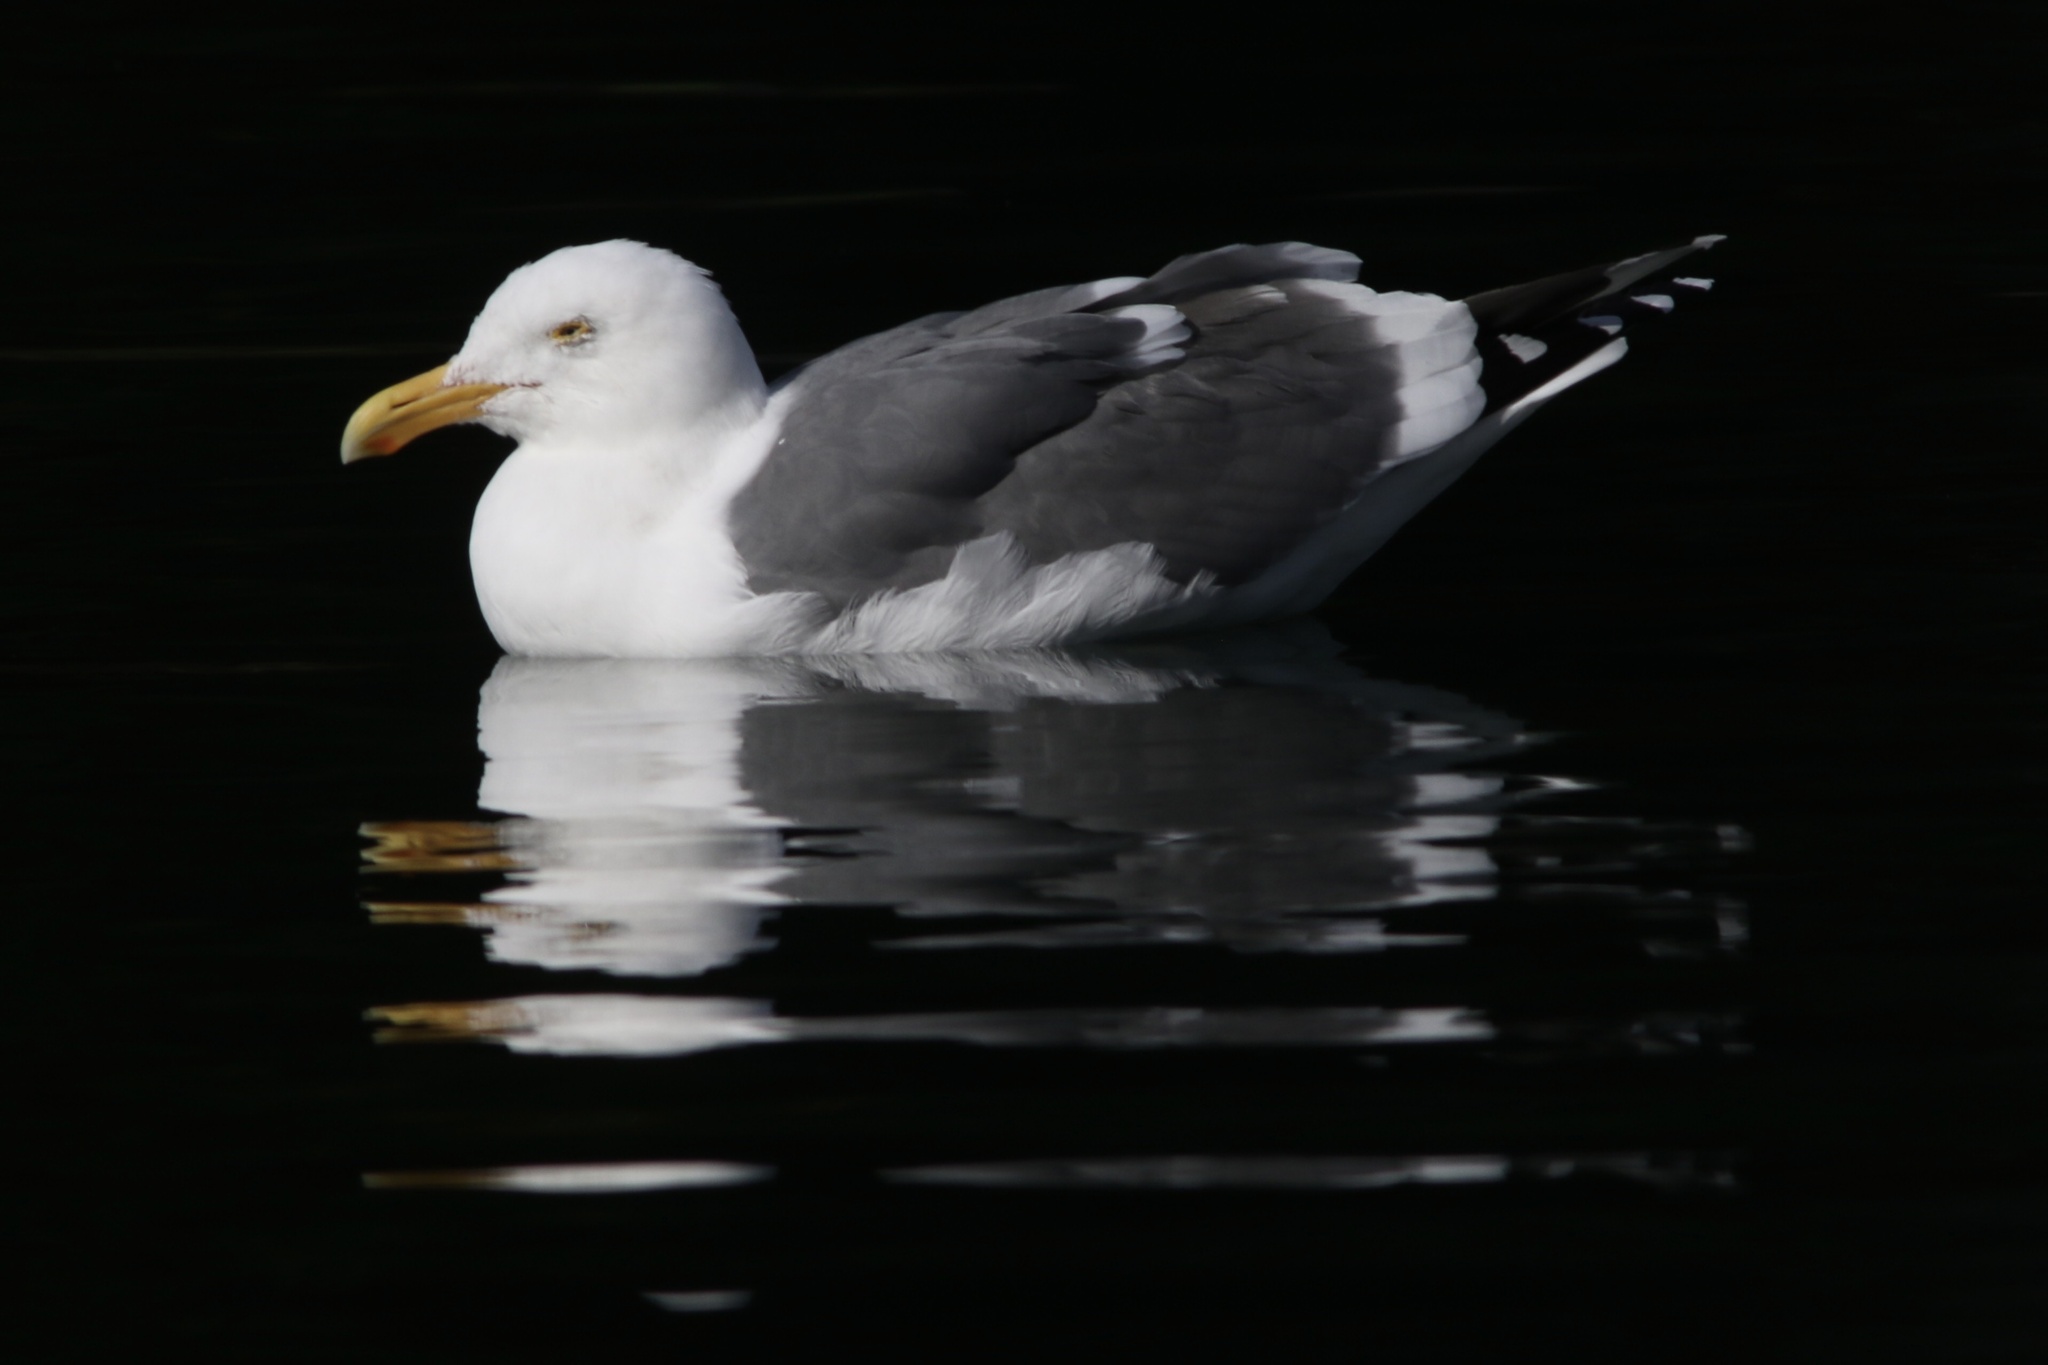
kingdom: Animalia
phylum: Chordata
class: Aves
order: Charadriiformes
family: Laridae
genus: Larus
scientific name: Larus occidentalis
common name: Western gull
